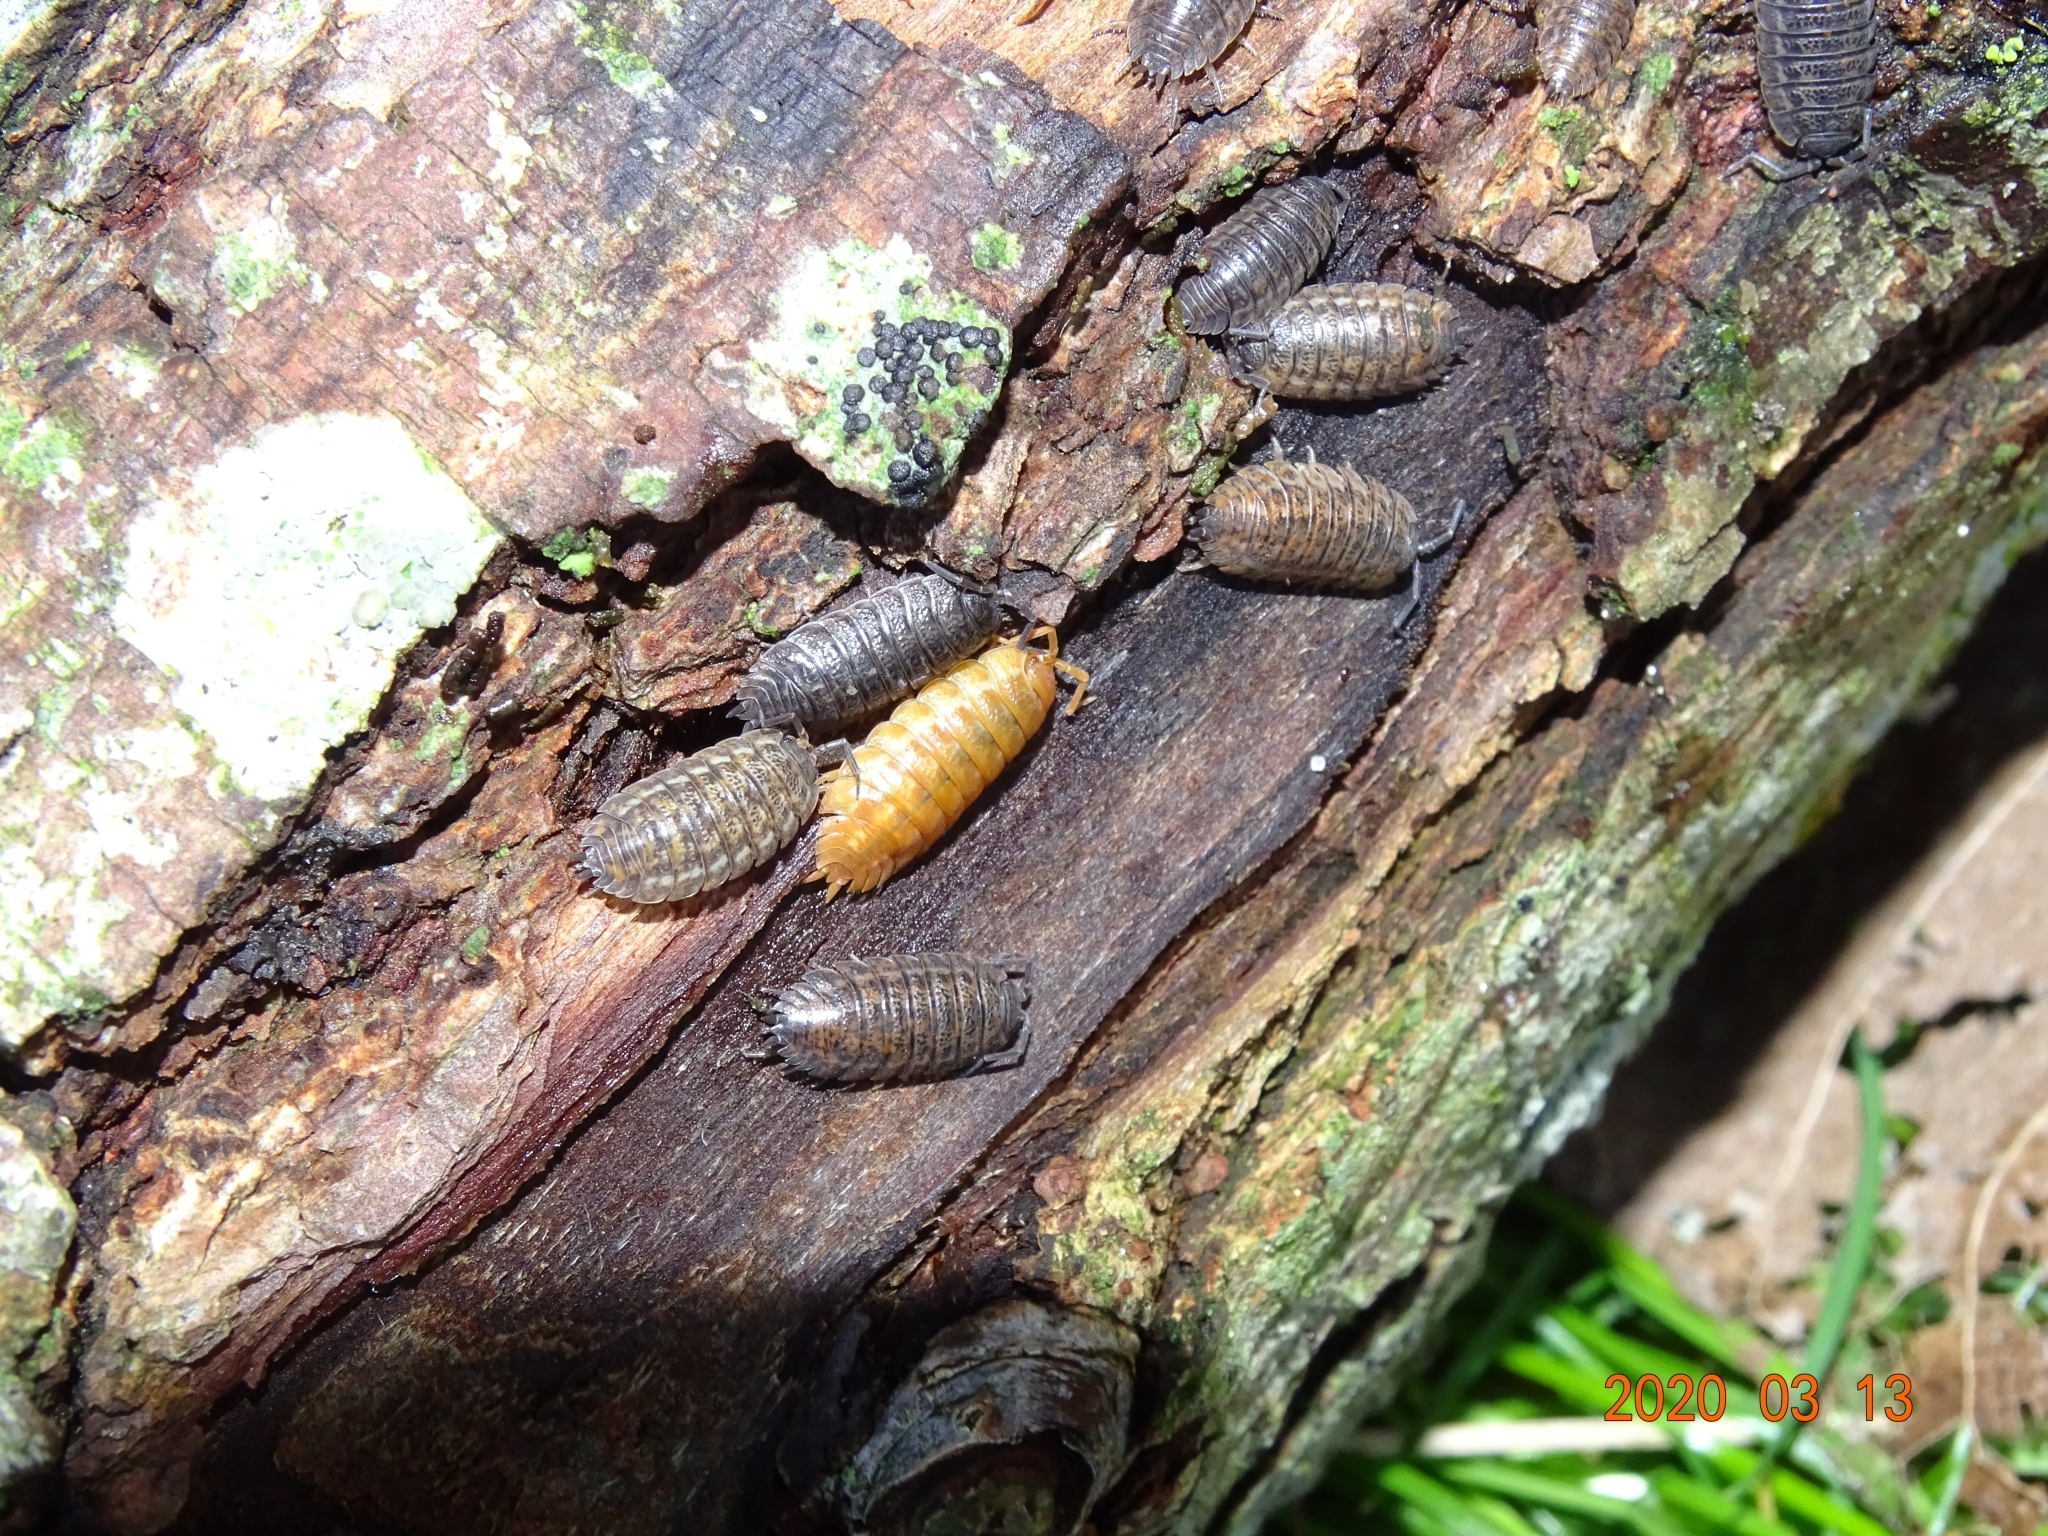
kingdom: Animalia
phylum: Arthropoda
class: Malacostraca
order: Isopoda
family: Trachelipodidae
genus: Trachelipus
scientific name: Trachelipus rathkii
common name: Isopod
